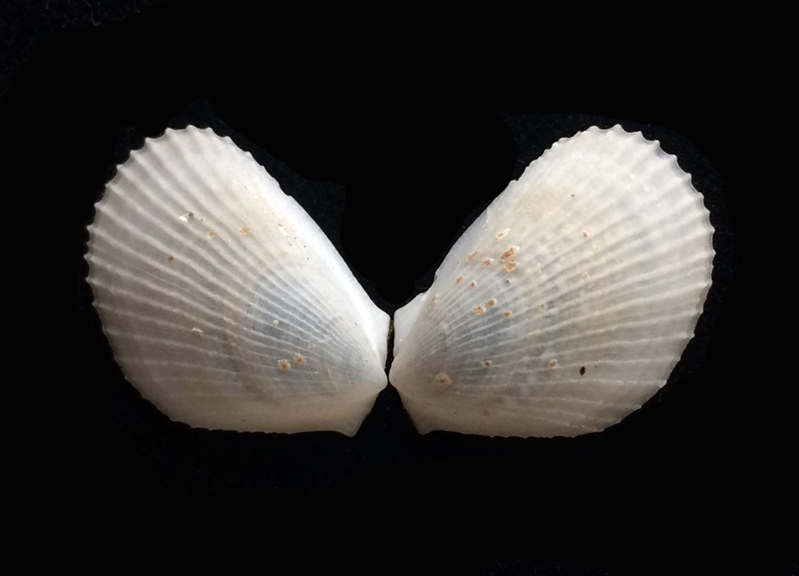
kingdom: Animalia
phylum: Mollusca
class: Bivalvia
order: Limida
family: Limidae
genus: Limaria
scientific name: Limaria hians
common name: Gaping file shale
